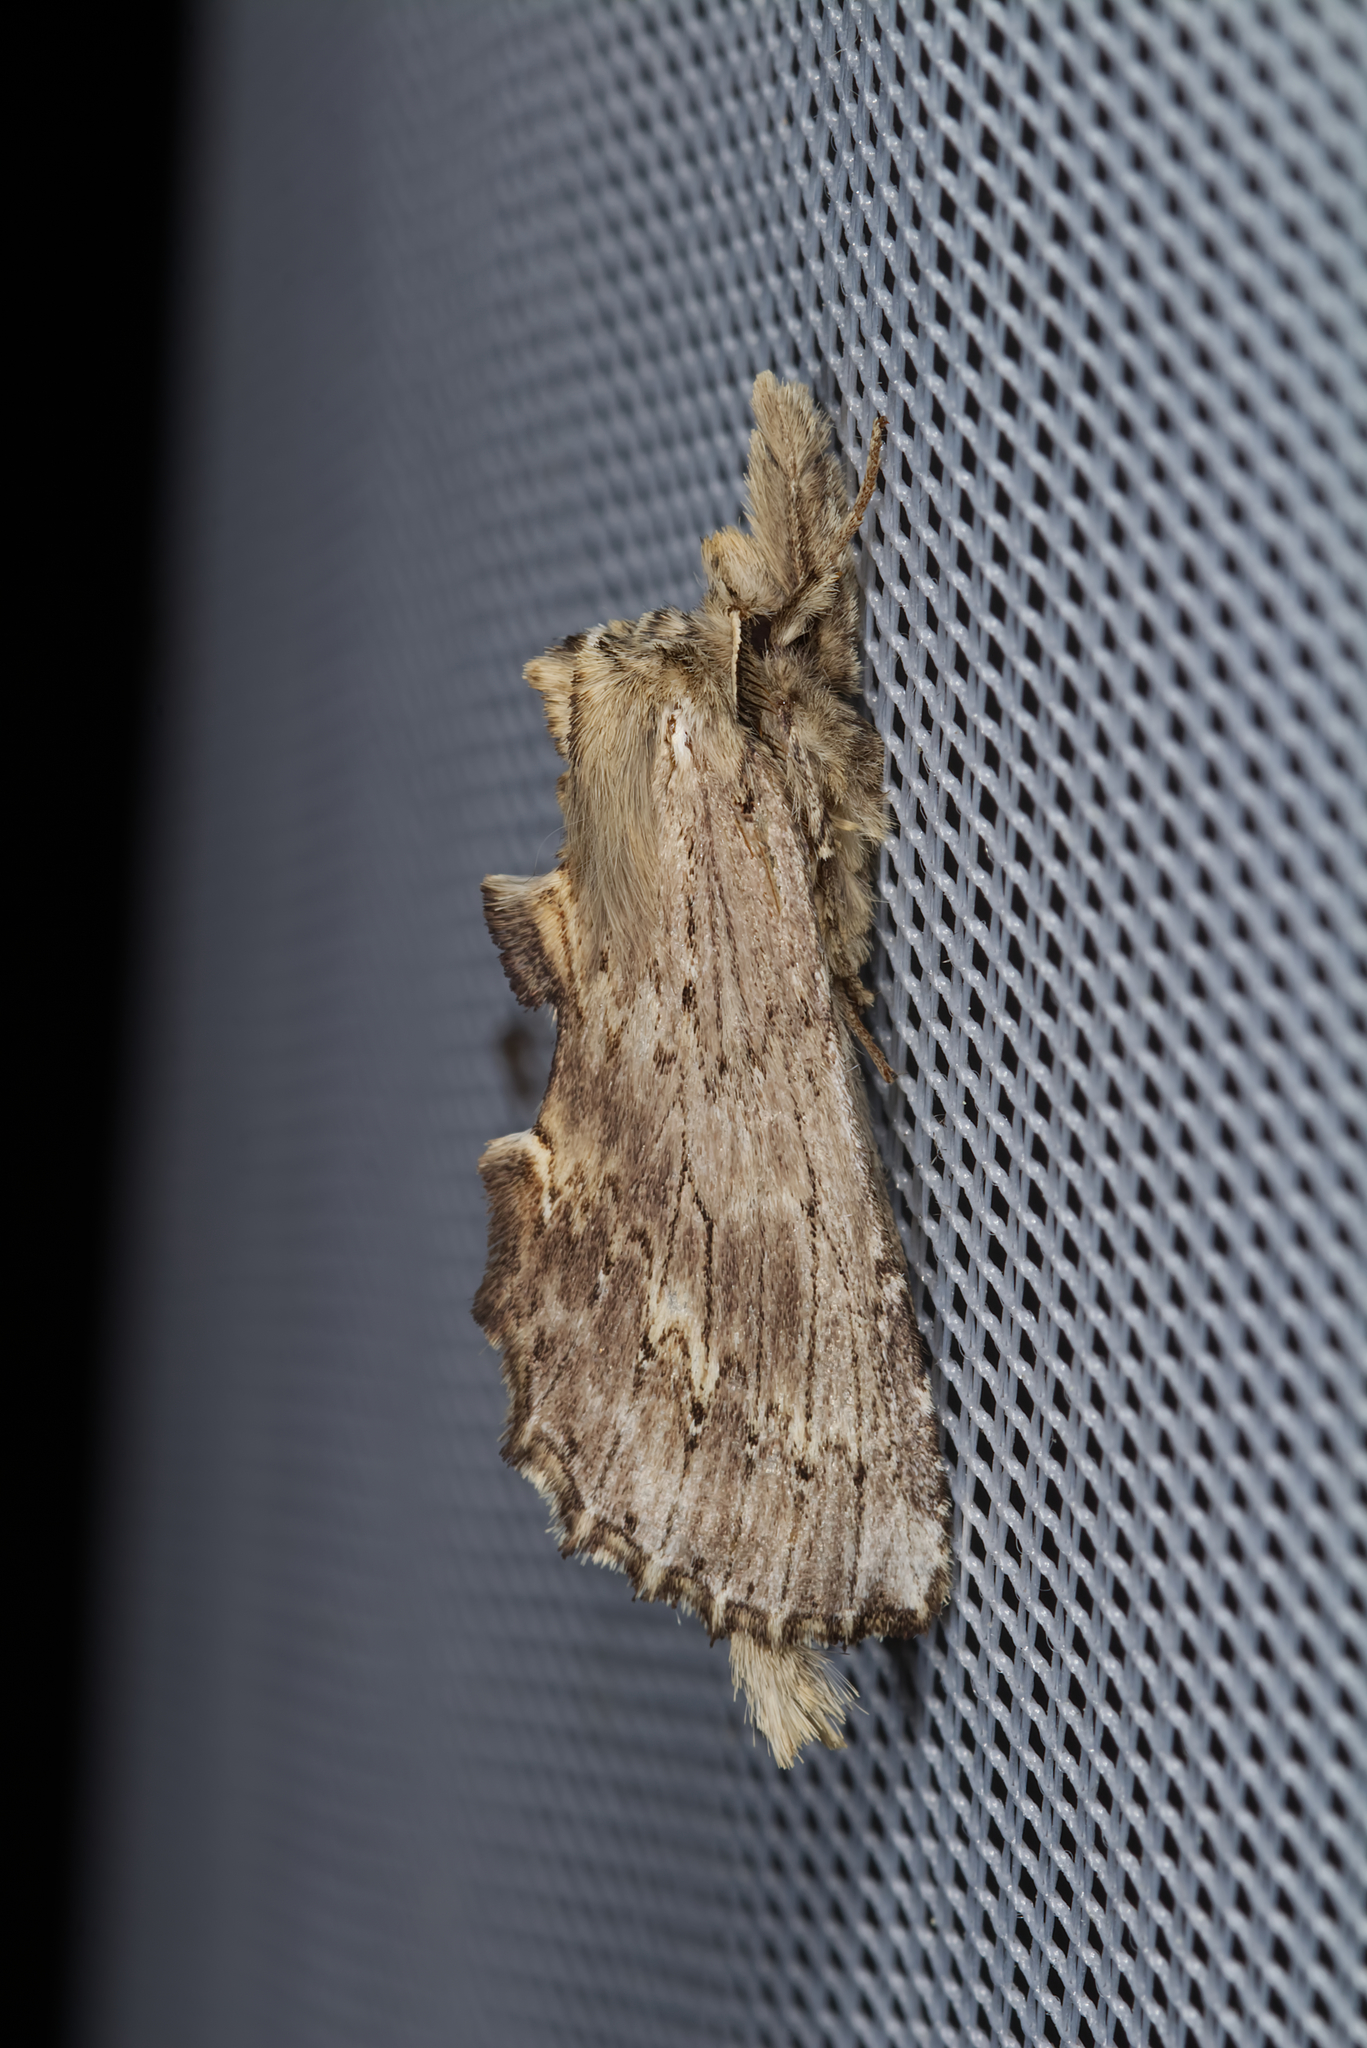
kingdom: Animalia
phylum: Arthropoda
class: Insecta
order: Lepidoptera
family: Notodontidae
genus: Pterostoma
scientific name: Pterostoma palpina
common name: Pale prominent
